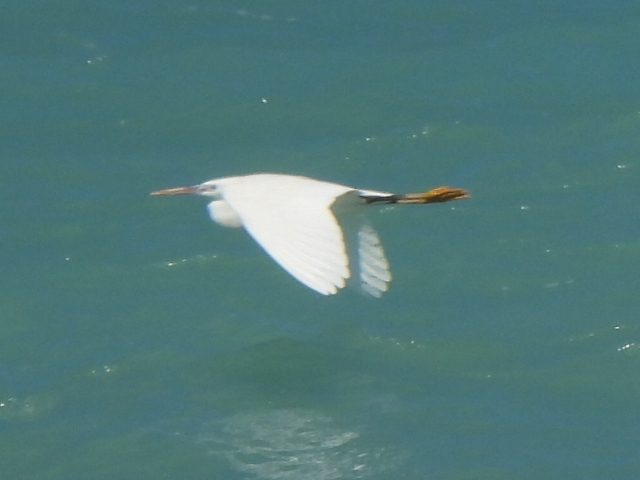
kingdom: Animalia
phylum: Chordata
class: Aves
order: Pelecaniformes
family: Ardeidae
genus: Egretta
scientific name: Egretta gularis
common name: Western reef-heron
